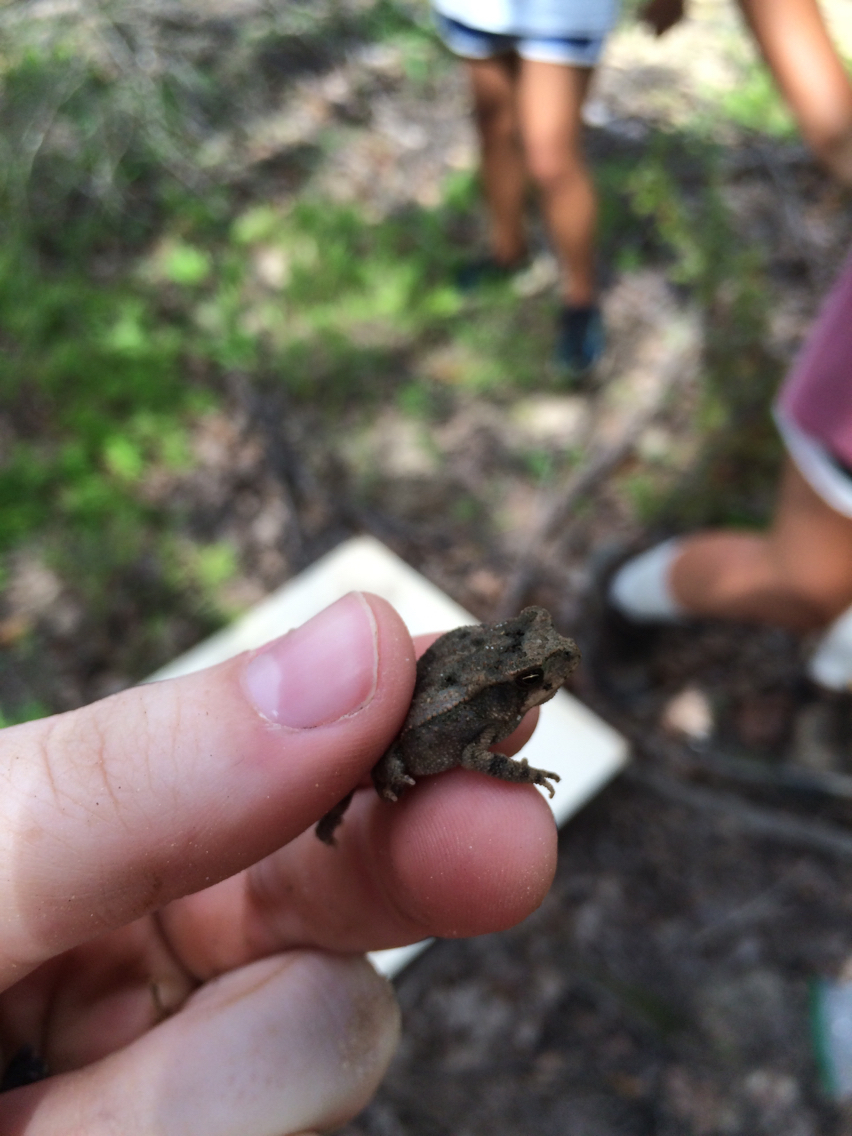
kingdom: Animalia
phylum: Chordata
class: Amphibia
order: Anura
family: Bufonidae
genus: Incilius
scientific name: Incilius nebulifer
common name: Gulf coast toad
